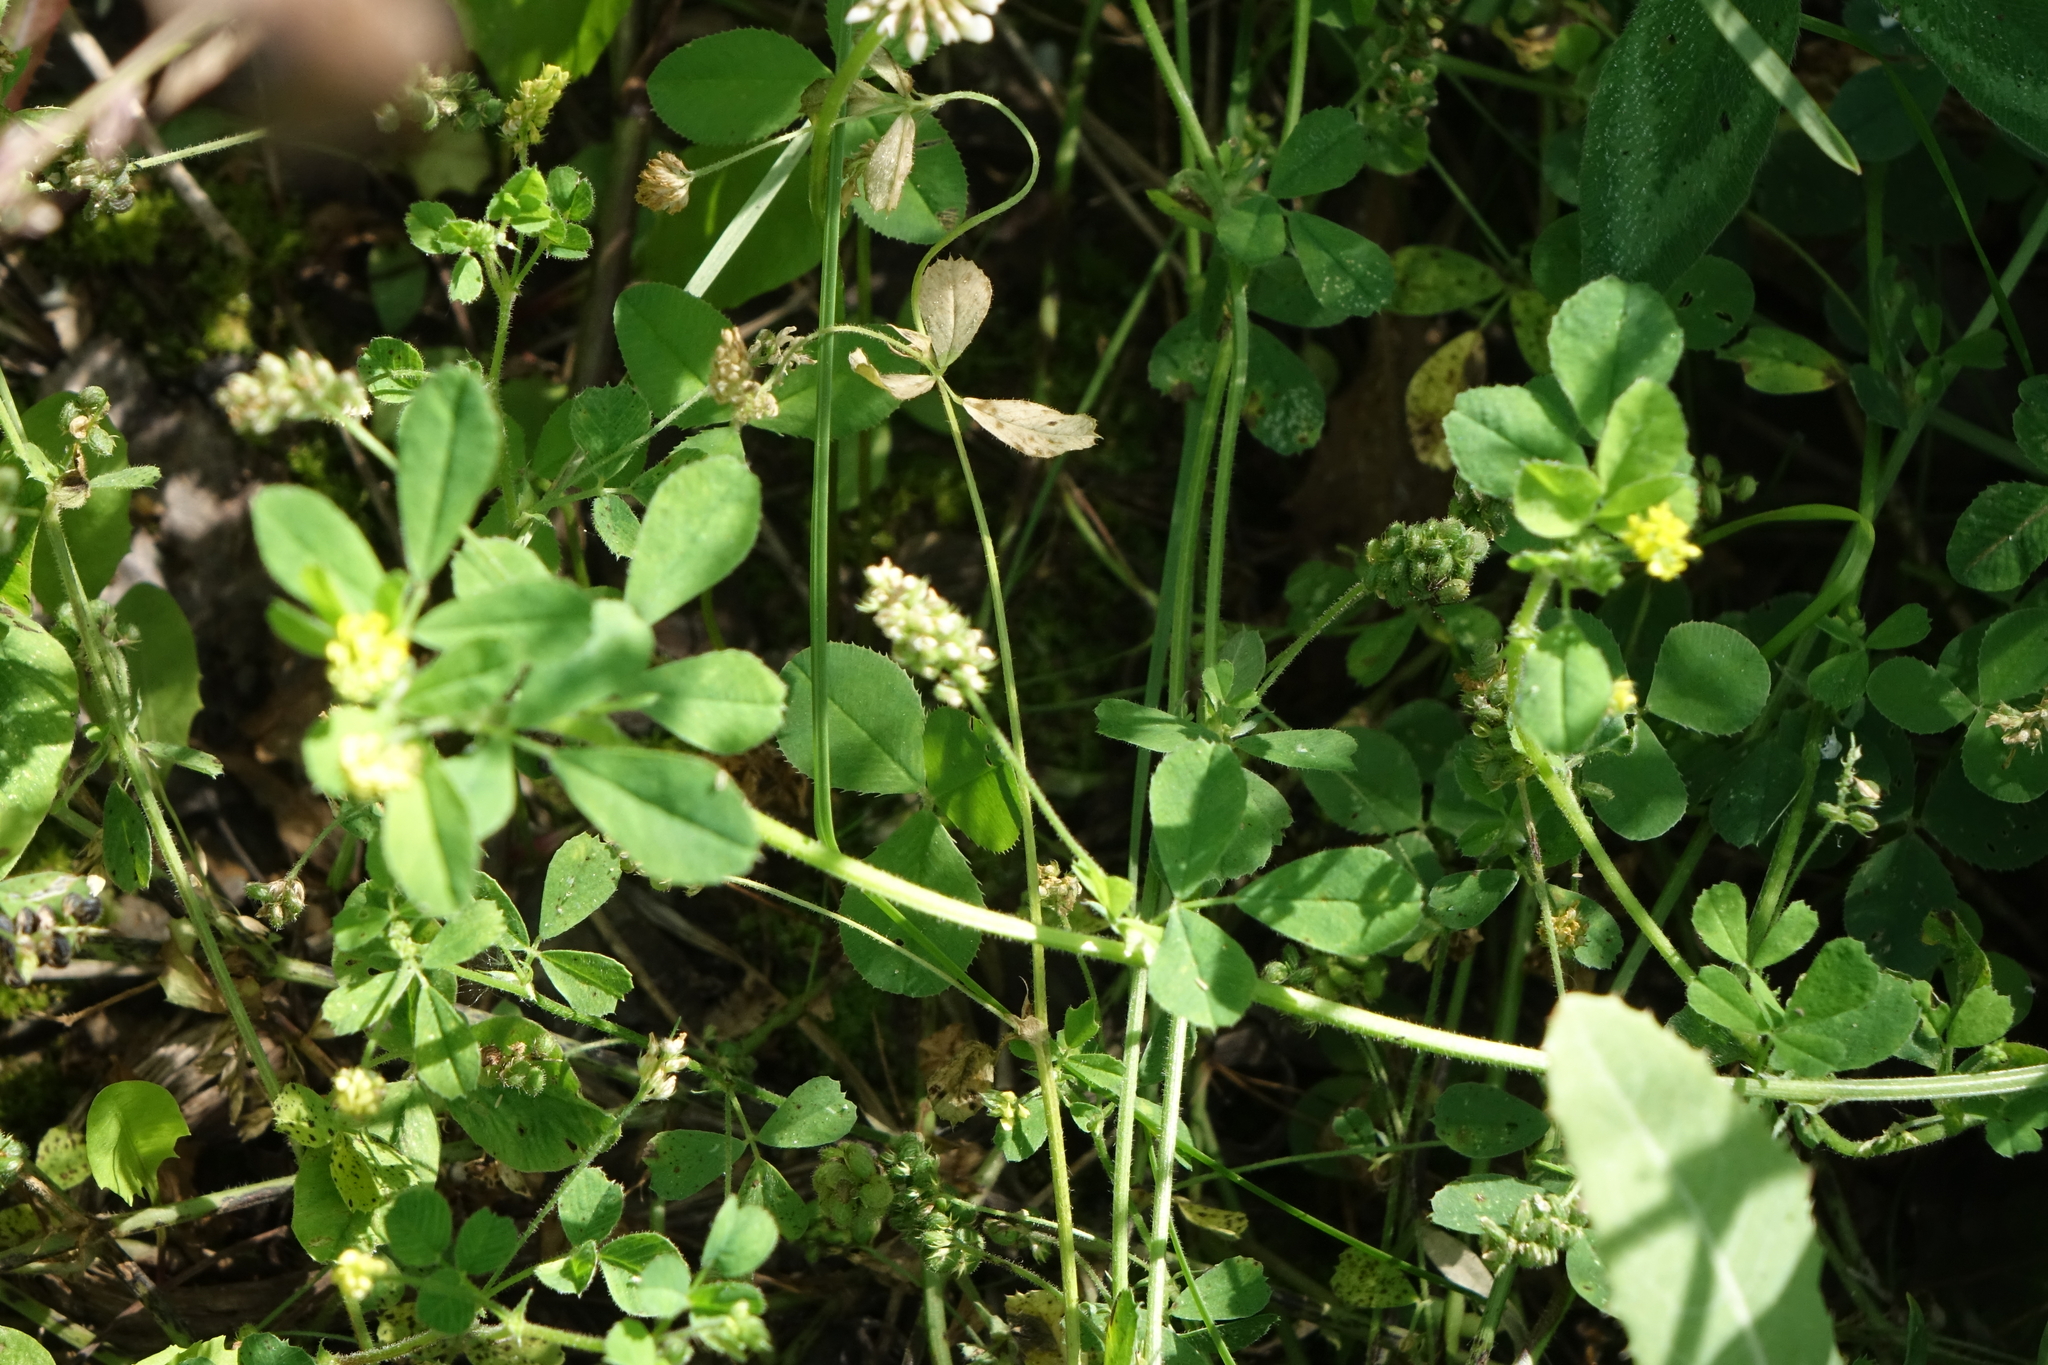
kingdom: Plantae
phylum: Tracheophyta
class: Magnoliopsida
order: Fabales
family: Fabaceae
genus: Medicago
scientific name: Medicago lupulina
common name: Black medick
